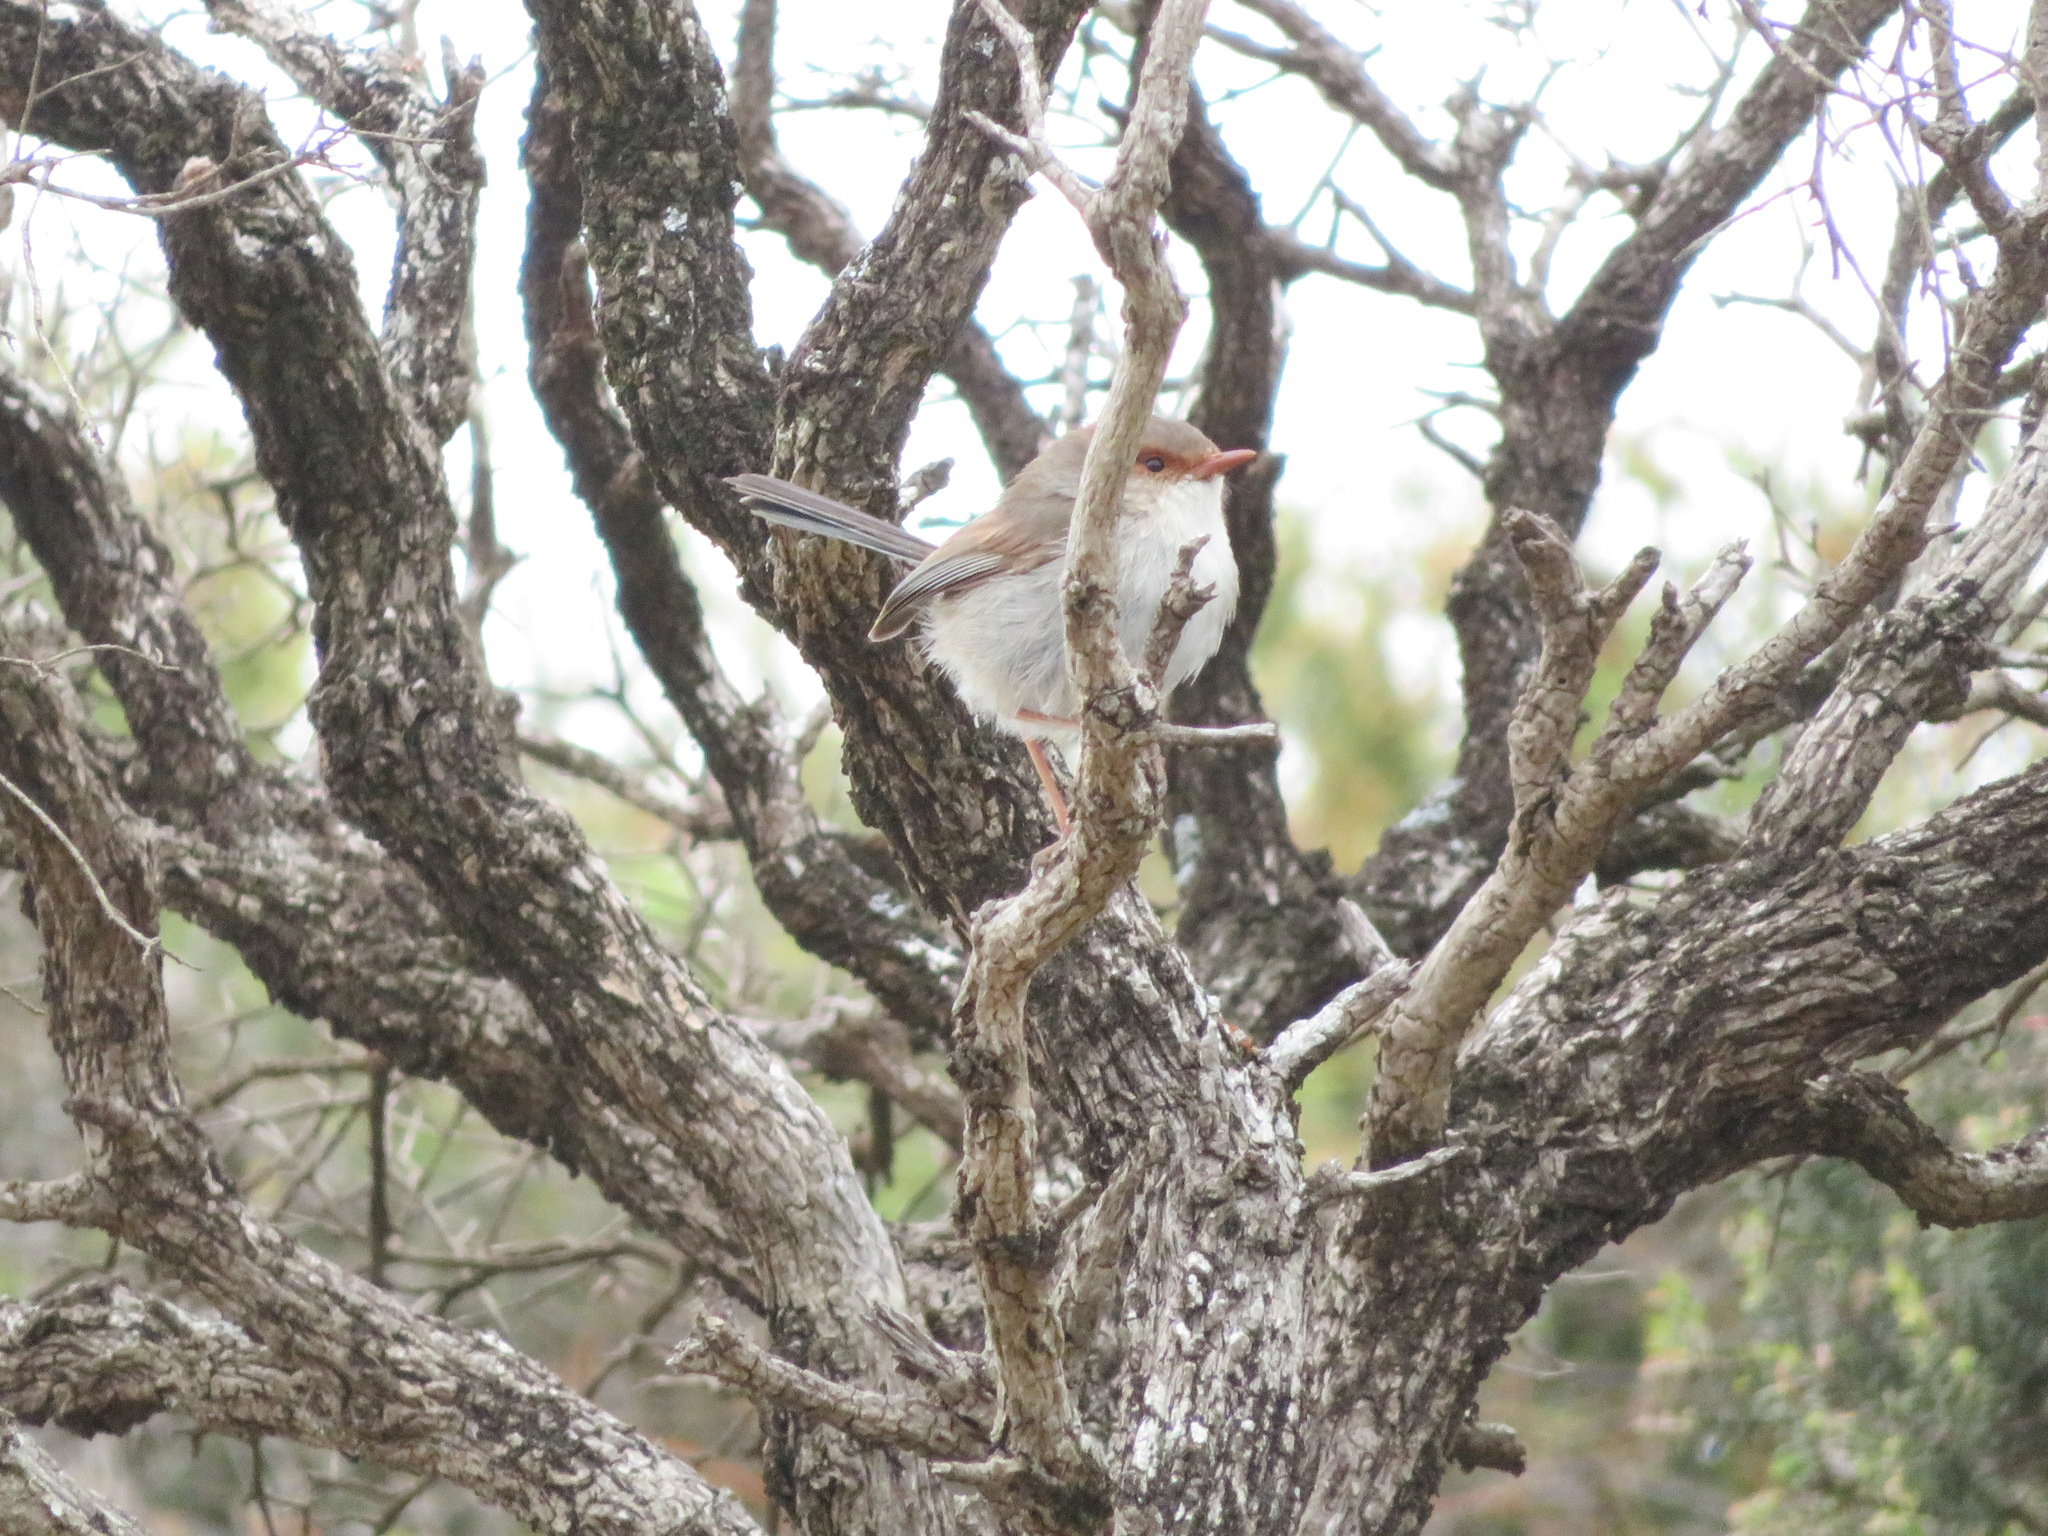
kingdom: Animalia
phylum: Chordata
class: Aves
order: Passeriformes
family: Maluridae
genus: Malurus
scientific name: Malurus cyaneus
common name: Superb fairywren
